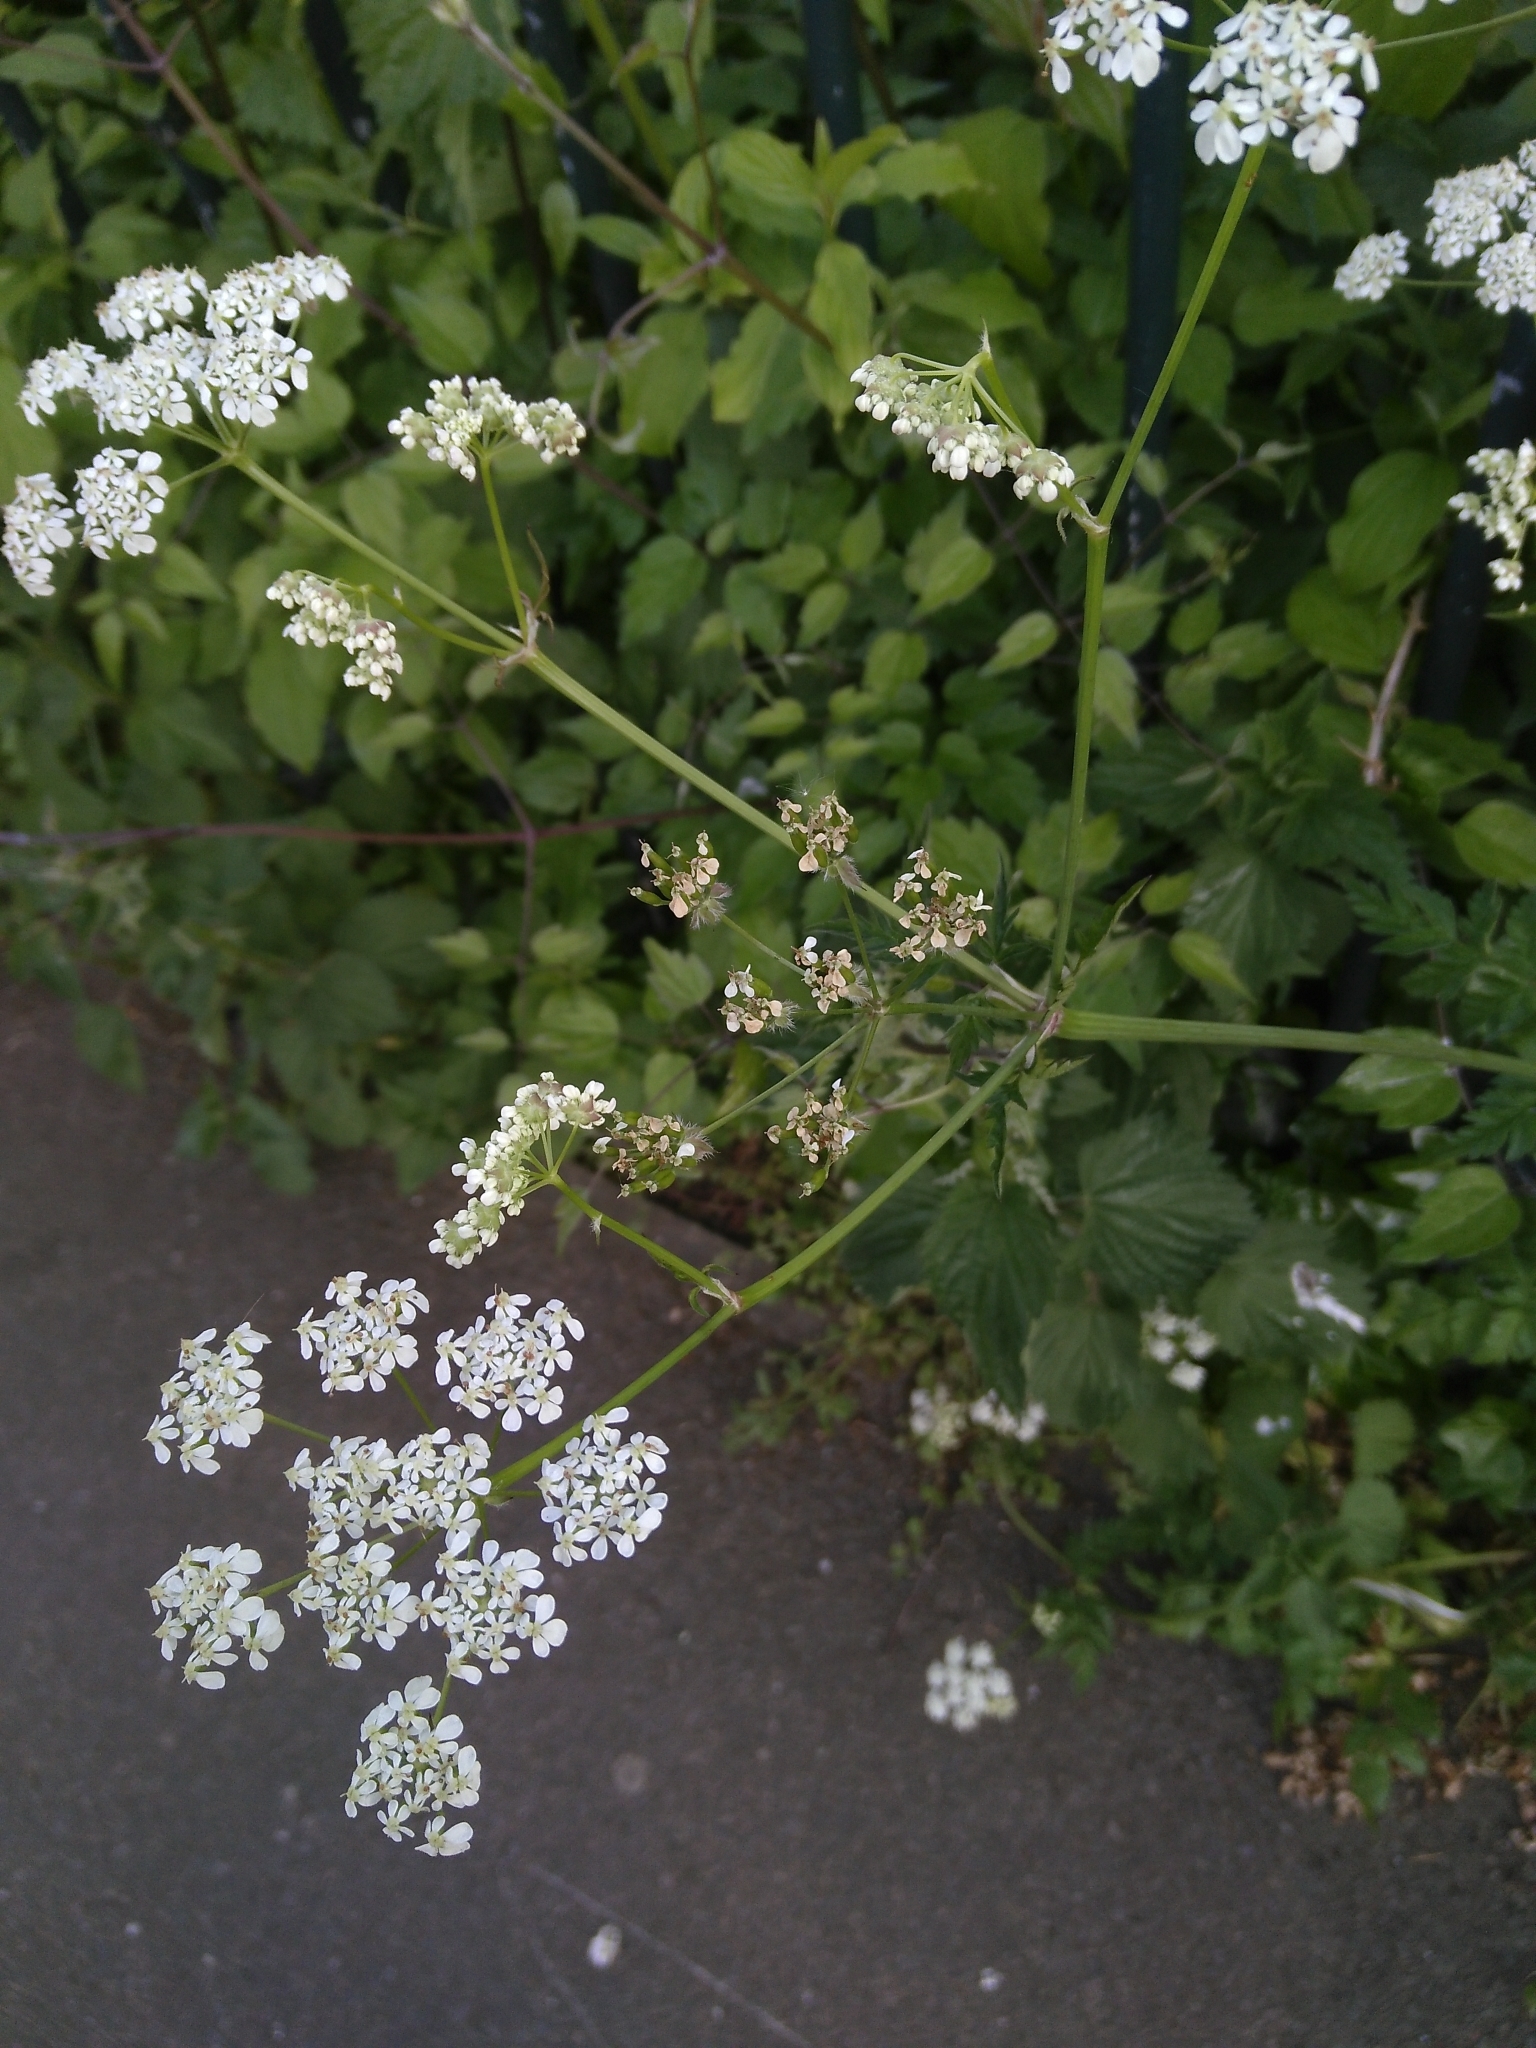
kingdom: Plantae
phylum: Tracheophyta
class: Magnoliopsida
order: Apiales
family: Apiaceae
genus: Anthriscus
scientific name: Anthriscus sylvestris
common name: Cow parsley
